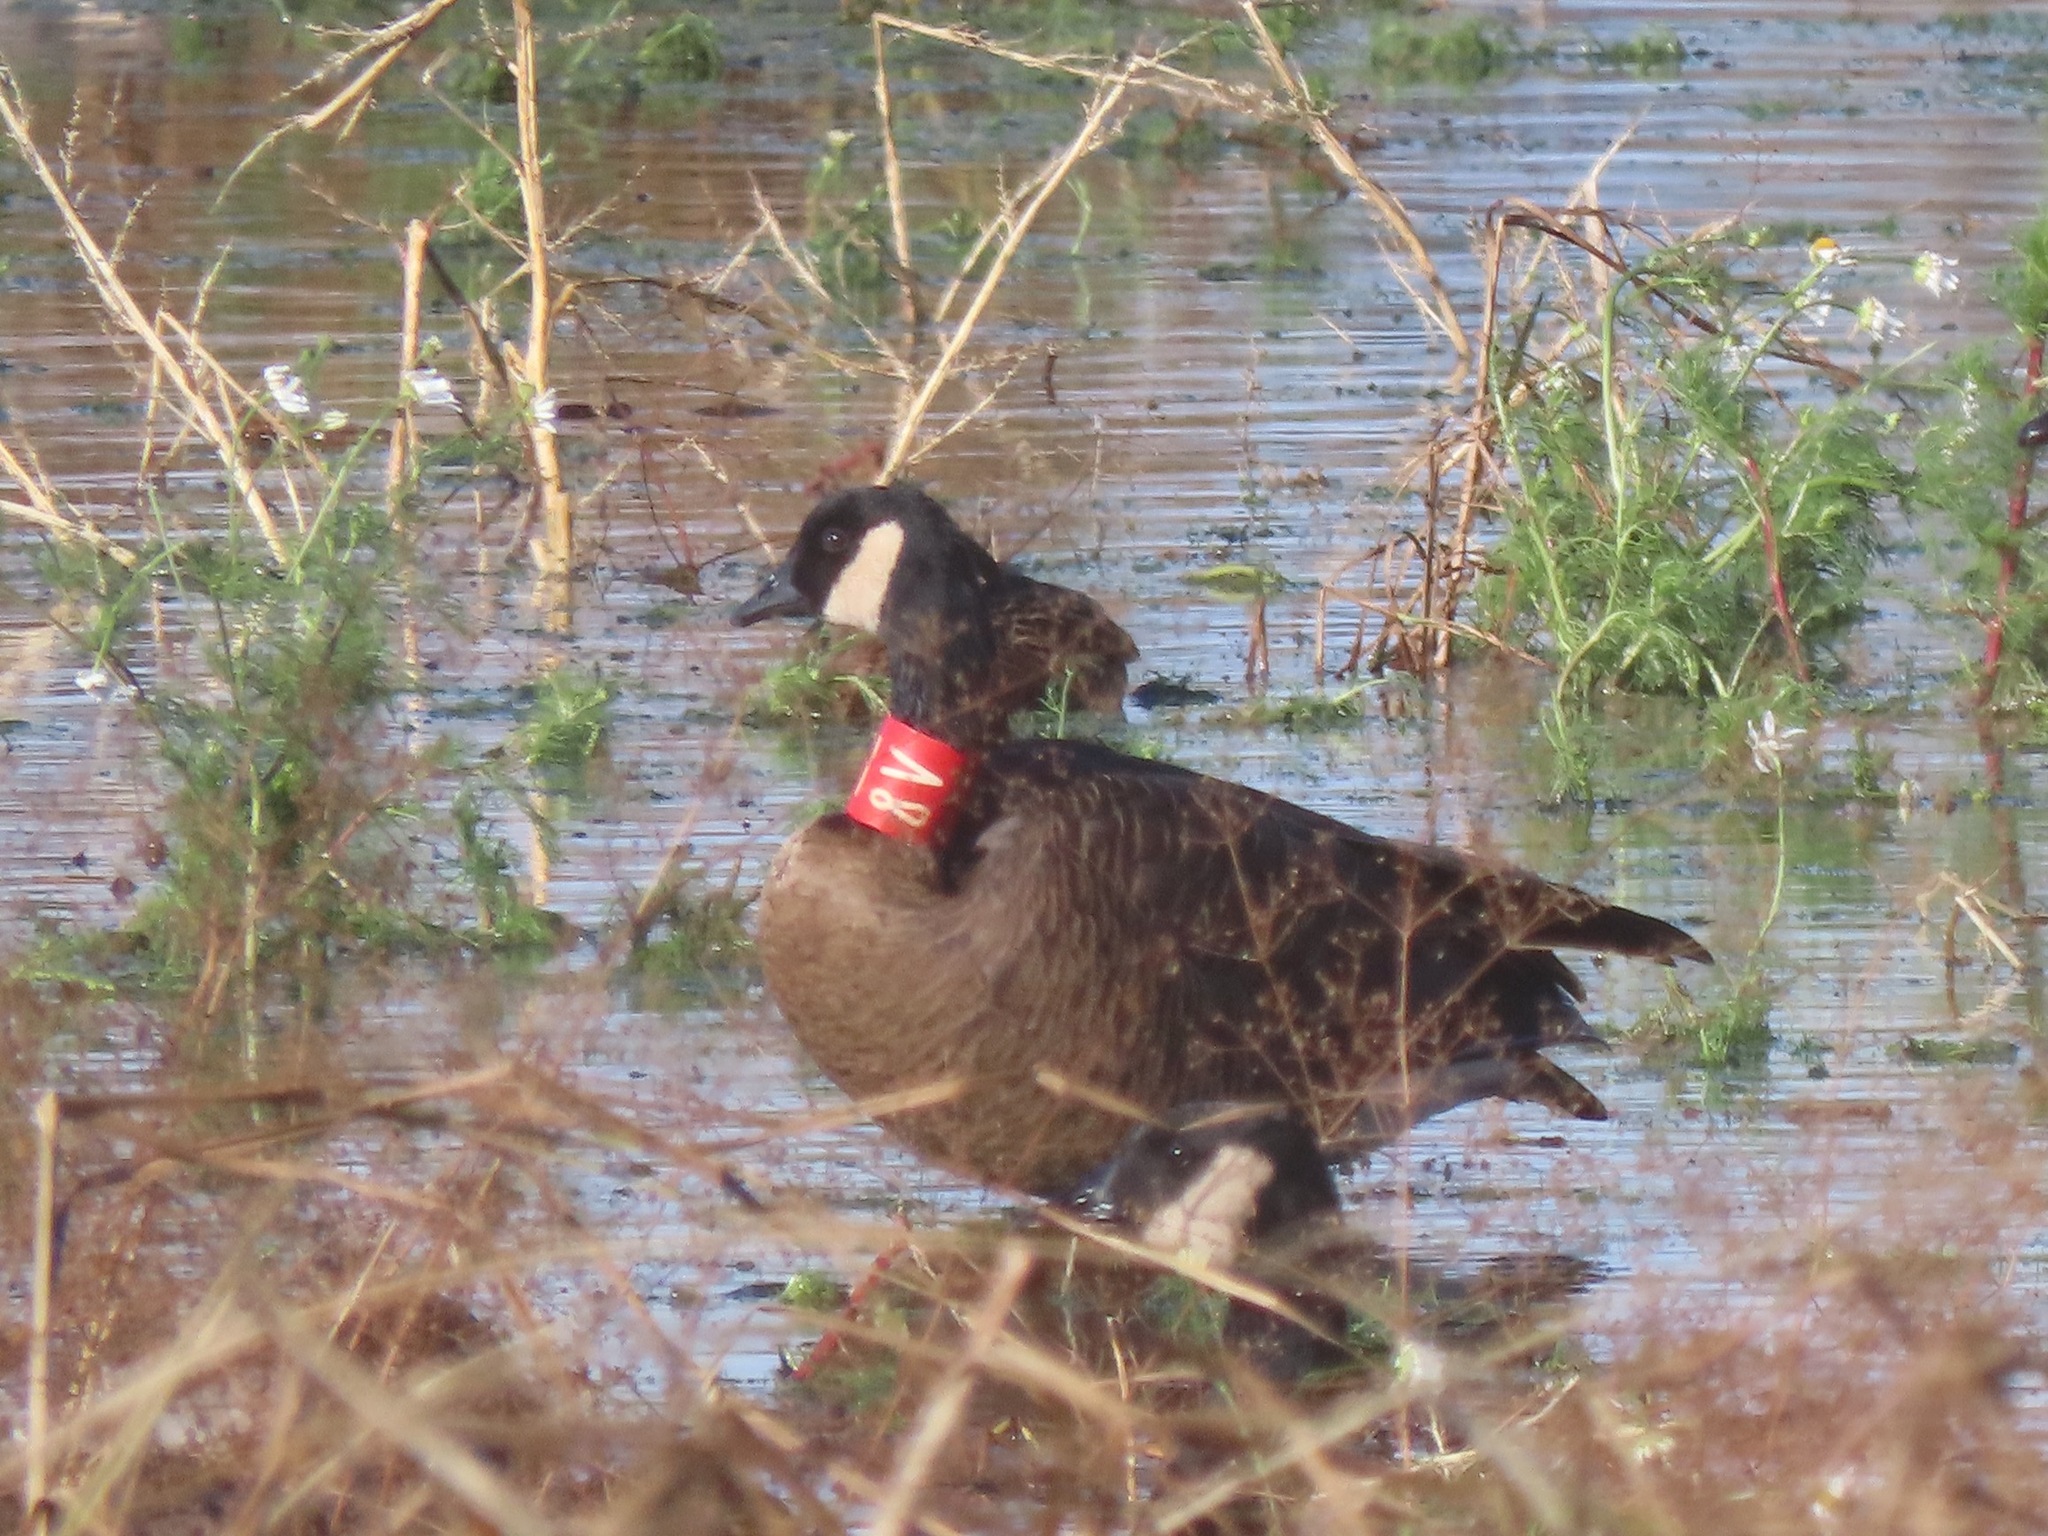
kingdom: Animalia
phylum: Chordata
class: Aves
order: Anseriformes
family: Anatidae
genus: Branta
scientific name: Branta canadensis
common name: Canada goose
